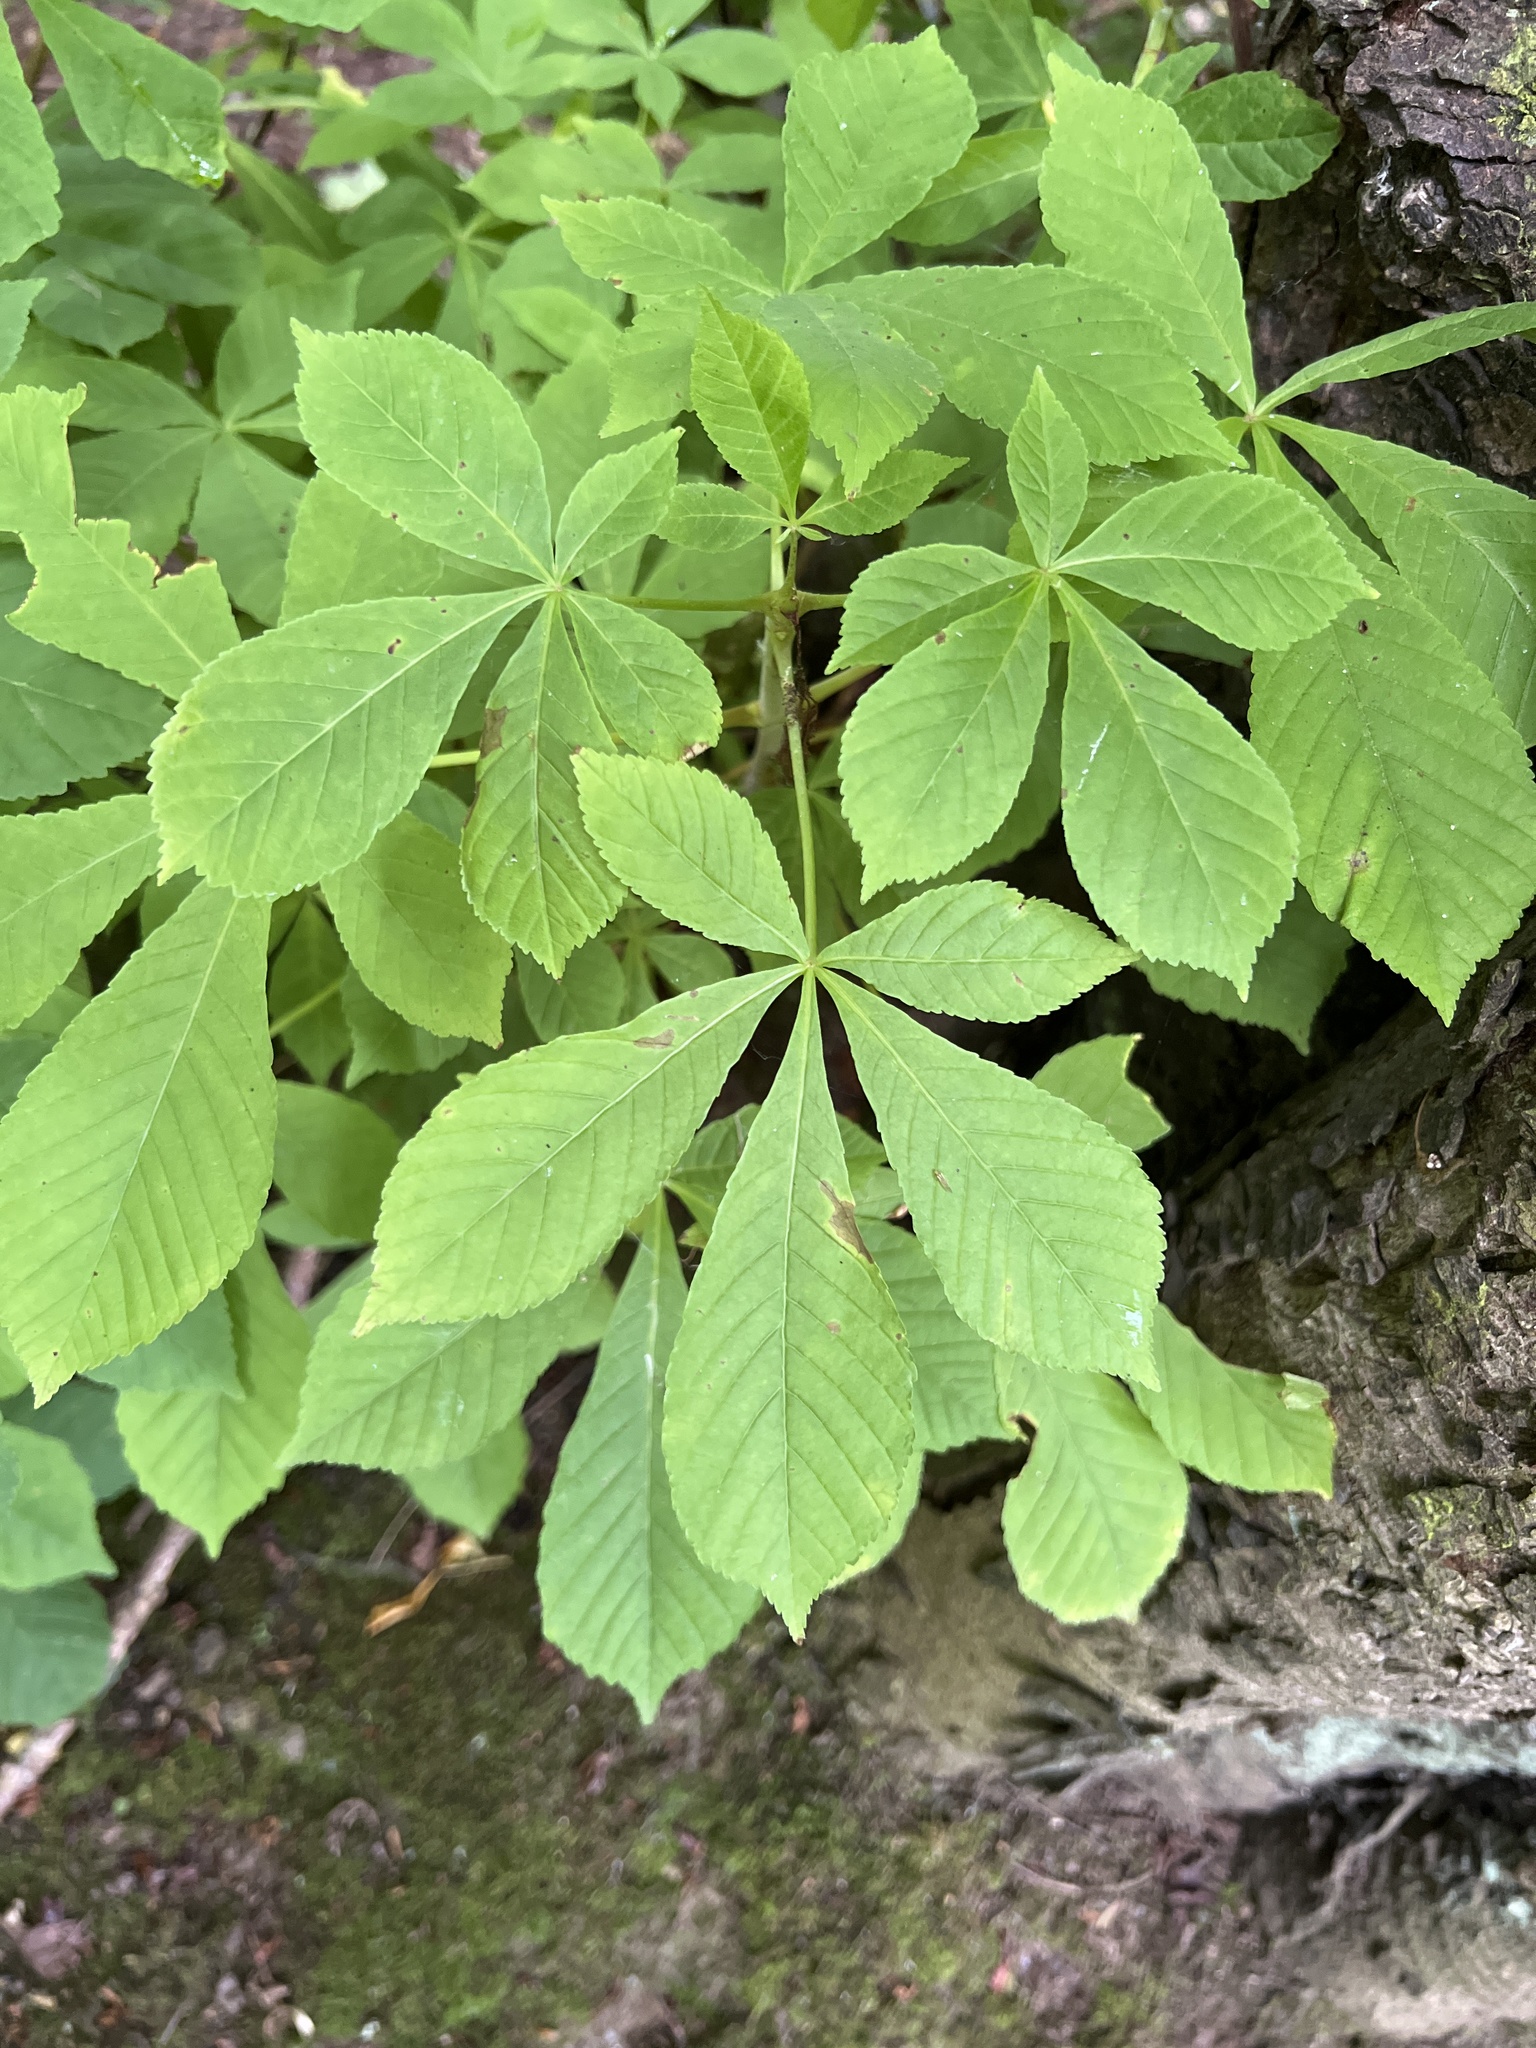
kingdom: Plantae
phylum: Tracheophyta
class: Magnoliopsida
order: Sapindales
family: Sapindaceae
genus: Aesculus
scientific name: Aesculus hippocastanum
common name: Horse-chestnut
